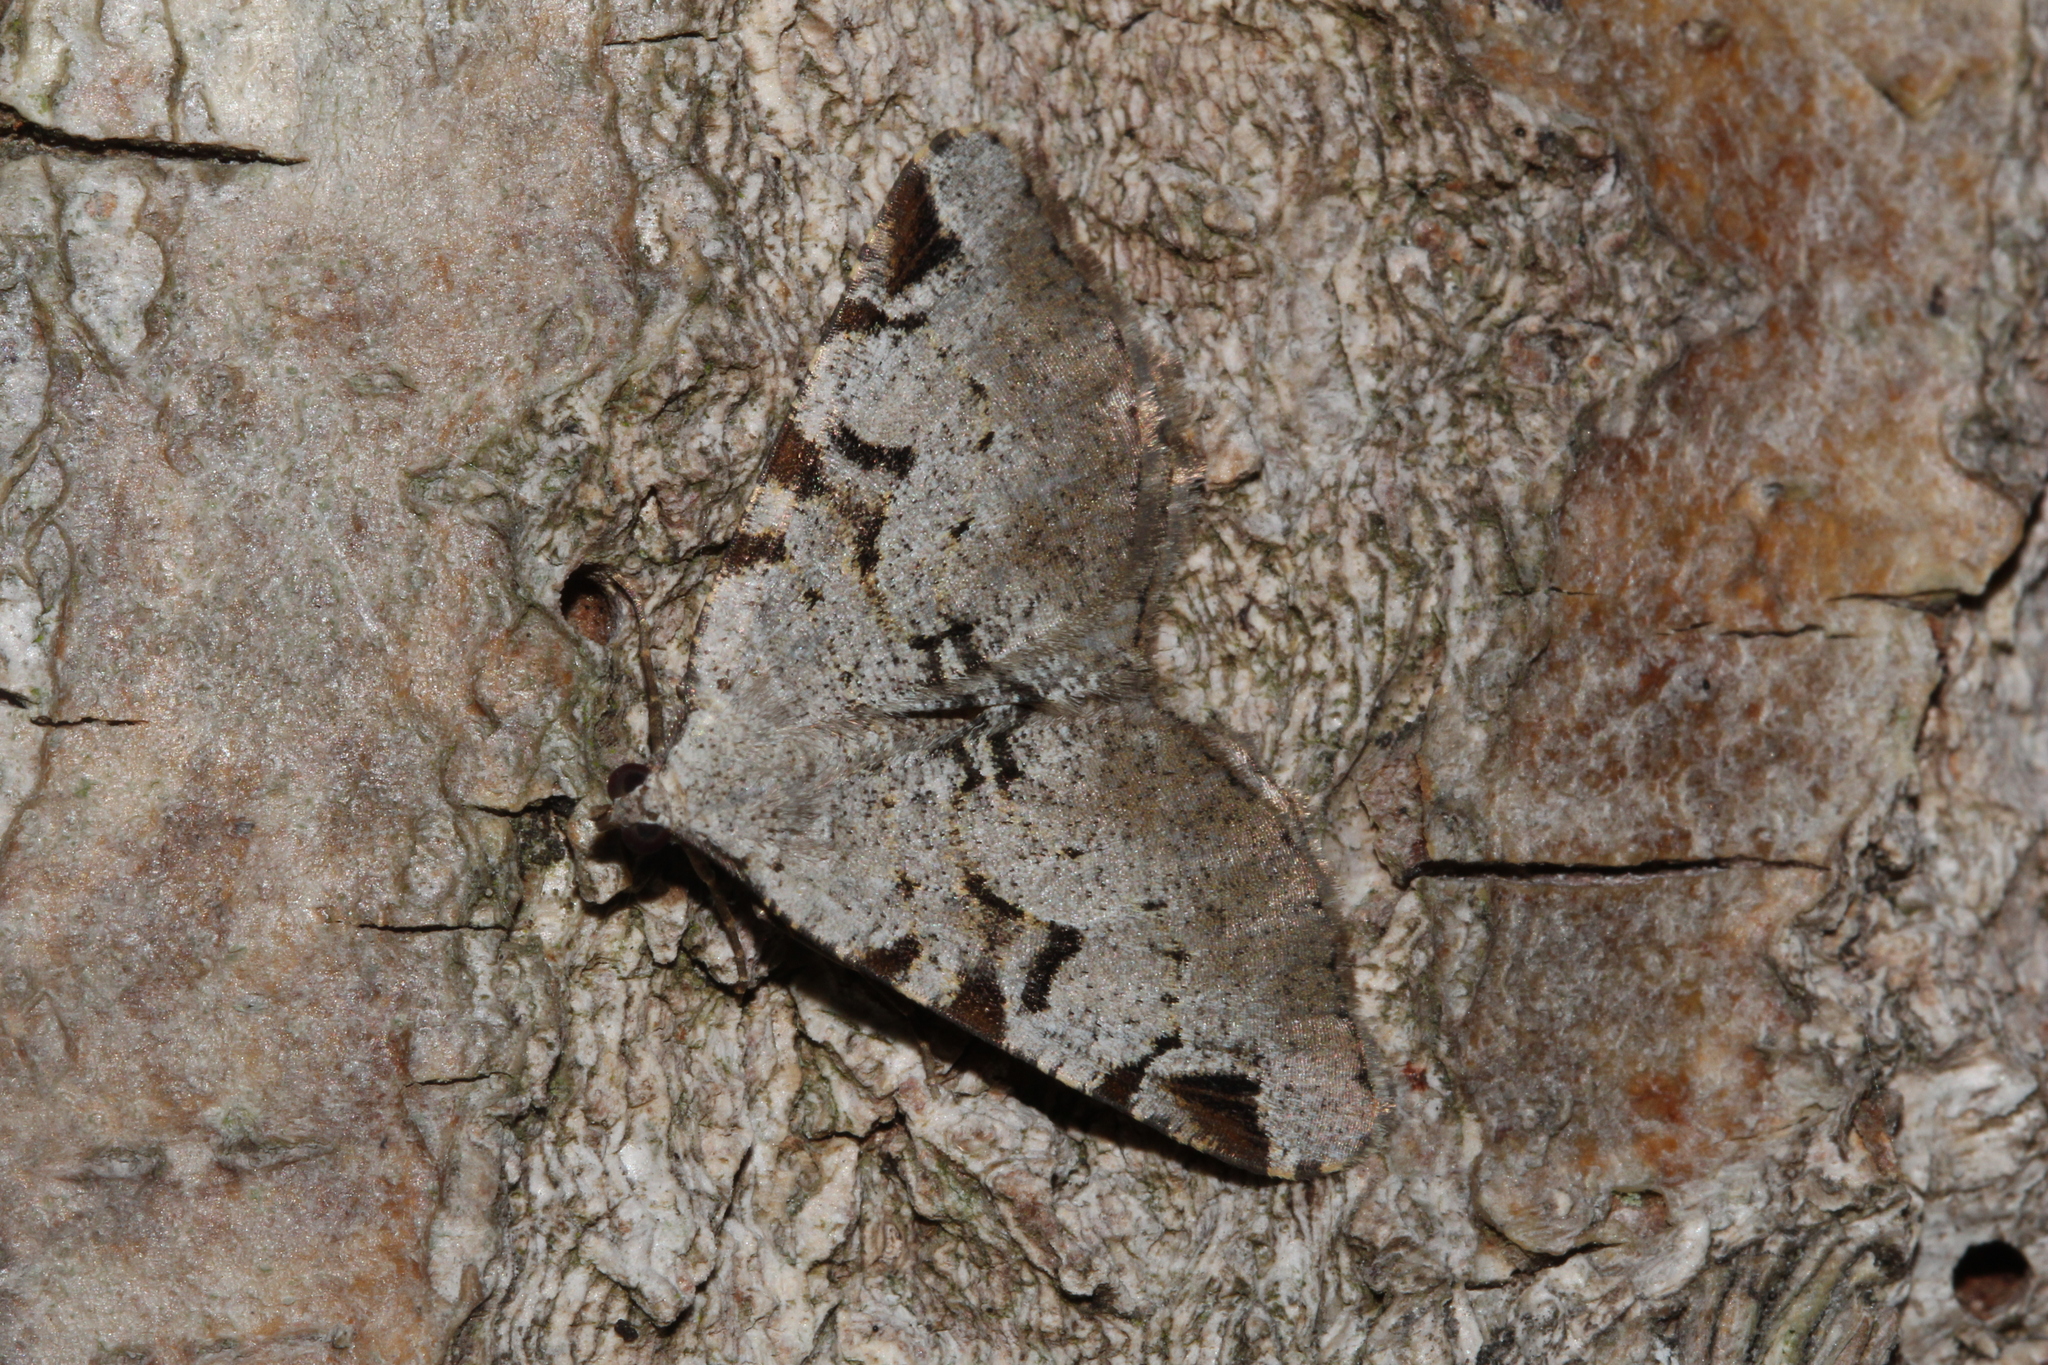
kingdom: Animalia
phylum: Arthropoda
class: Insecta
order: Lepidoptera
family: Geometridae
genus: Macaria
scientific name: Macaria wauaria
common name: V-moth
